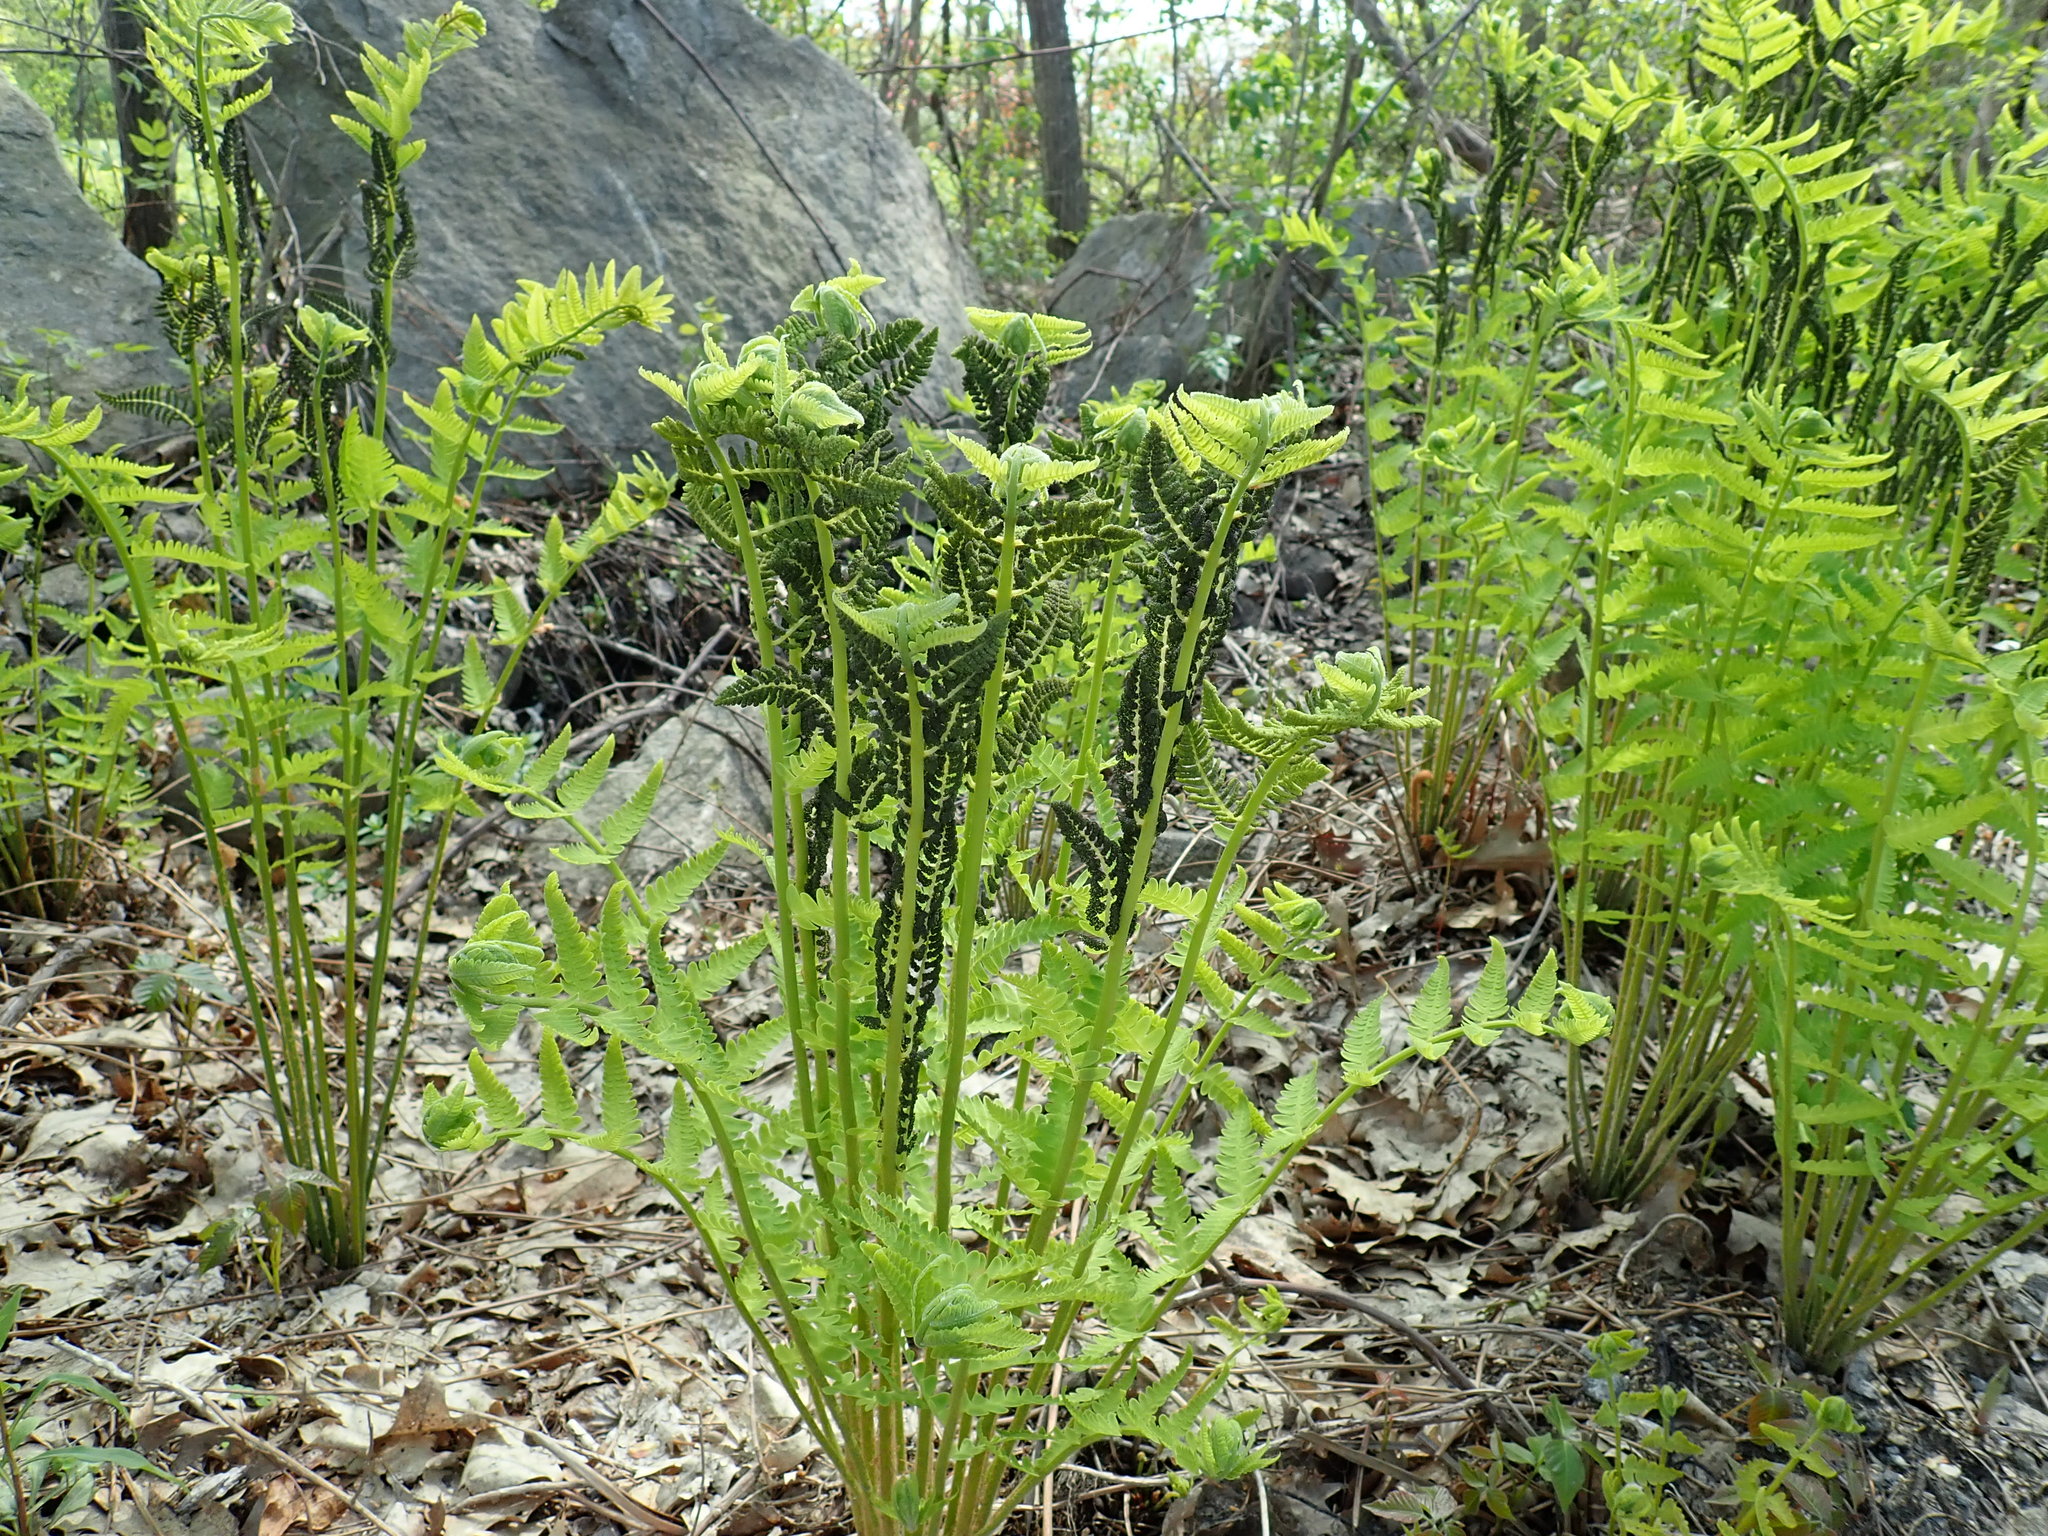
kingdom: Plantae
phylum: Tracheophyta
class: Polypodiopsida
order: Osmundales
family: Osmundaceae
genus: Claytosmunda
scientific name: Claytosmunda claytoniana
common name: Clayton's fern
